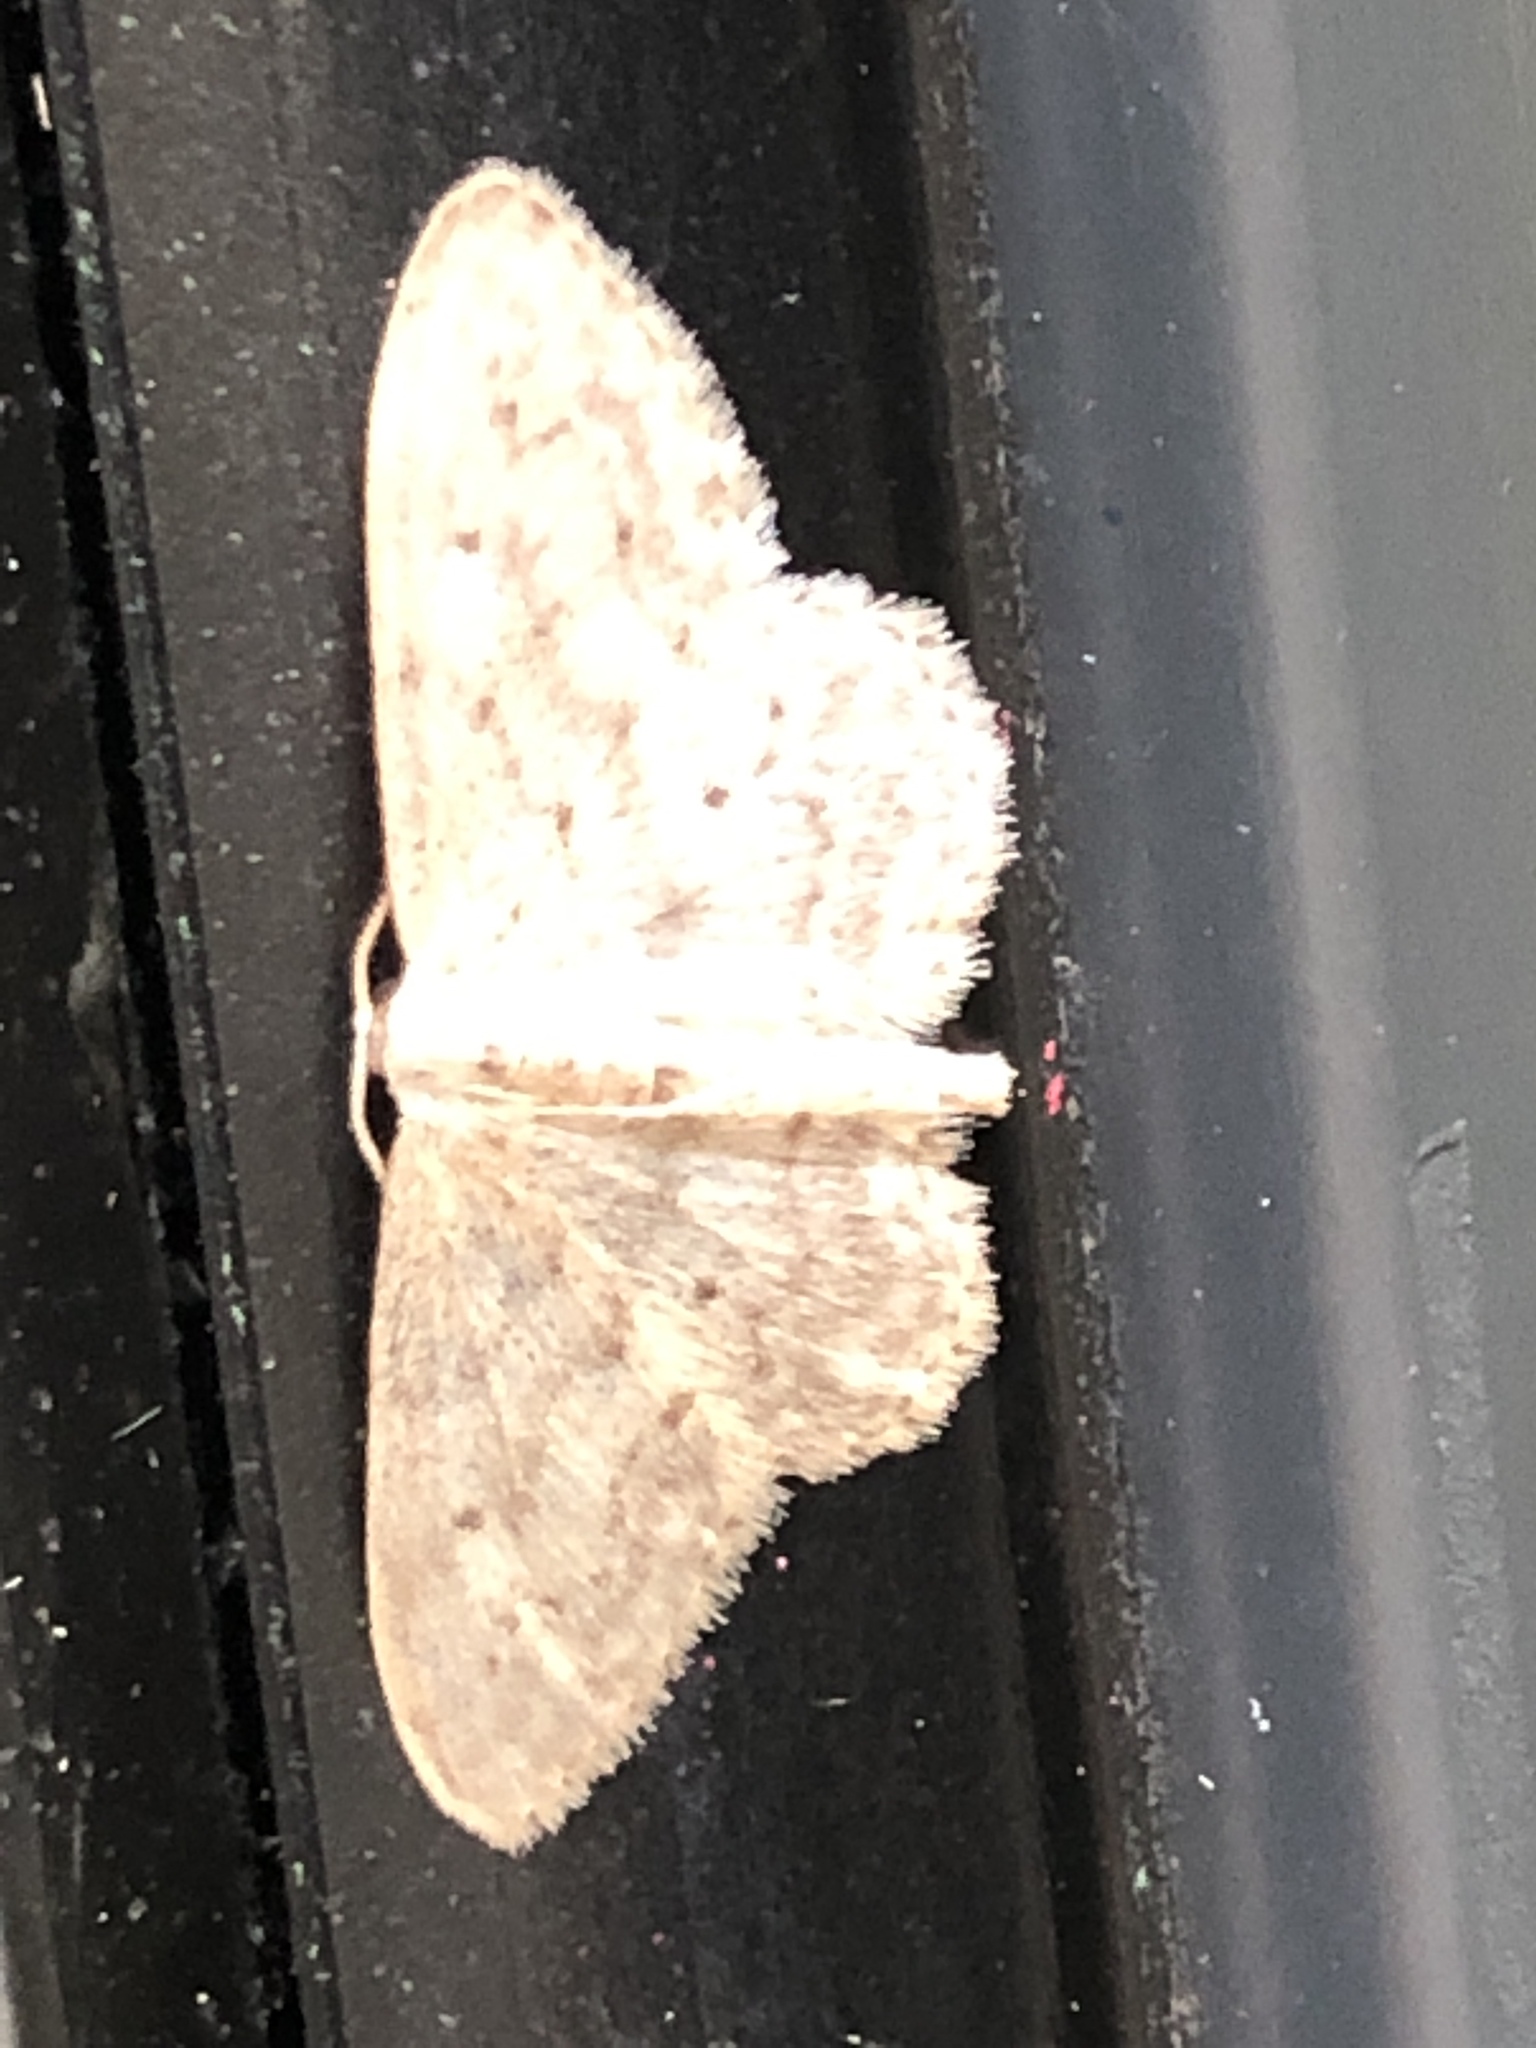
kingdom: Animalia
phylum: Arthropoda
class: Insecta
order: Lepidoptera
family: Geometridae
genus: Idaea
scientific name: Idaea seriata
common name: Small dusty wave
